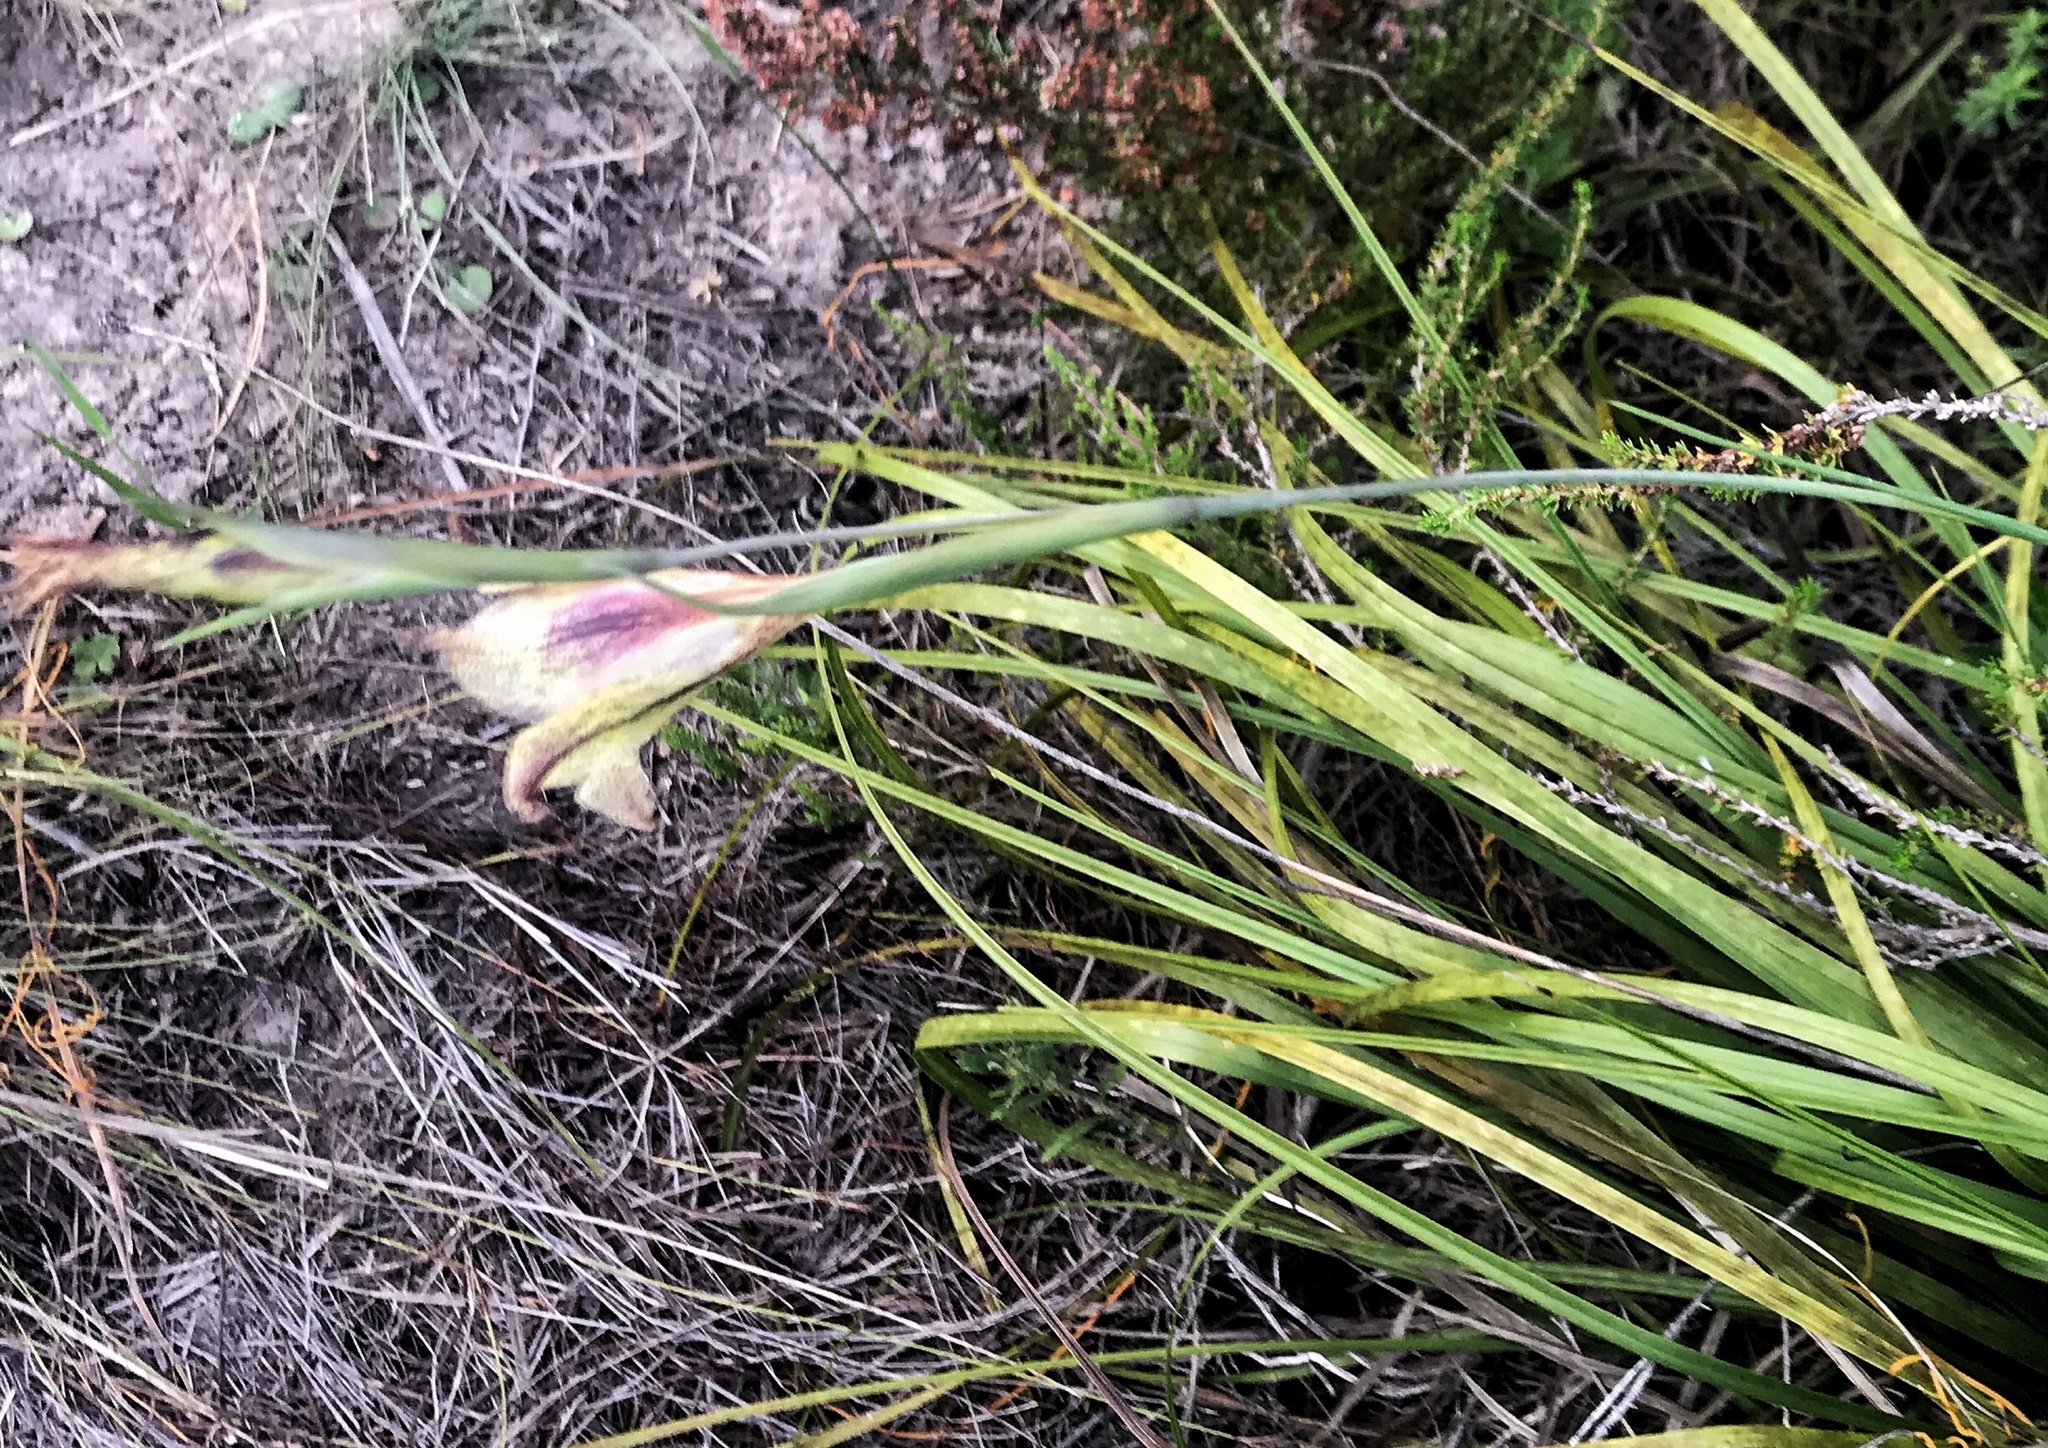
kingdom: Plantae
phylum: Tracheophyta
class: Liliopsida
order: Asparagales
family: Iridaceae
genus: Gladiolus
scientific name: Gladiolus maculatus
